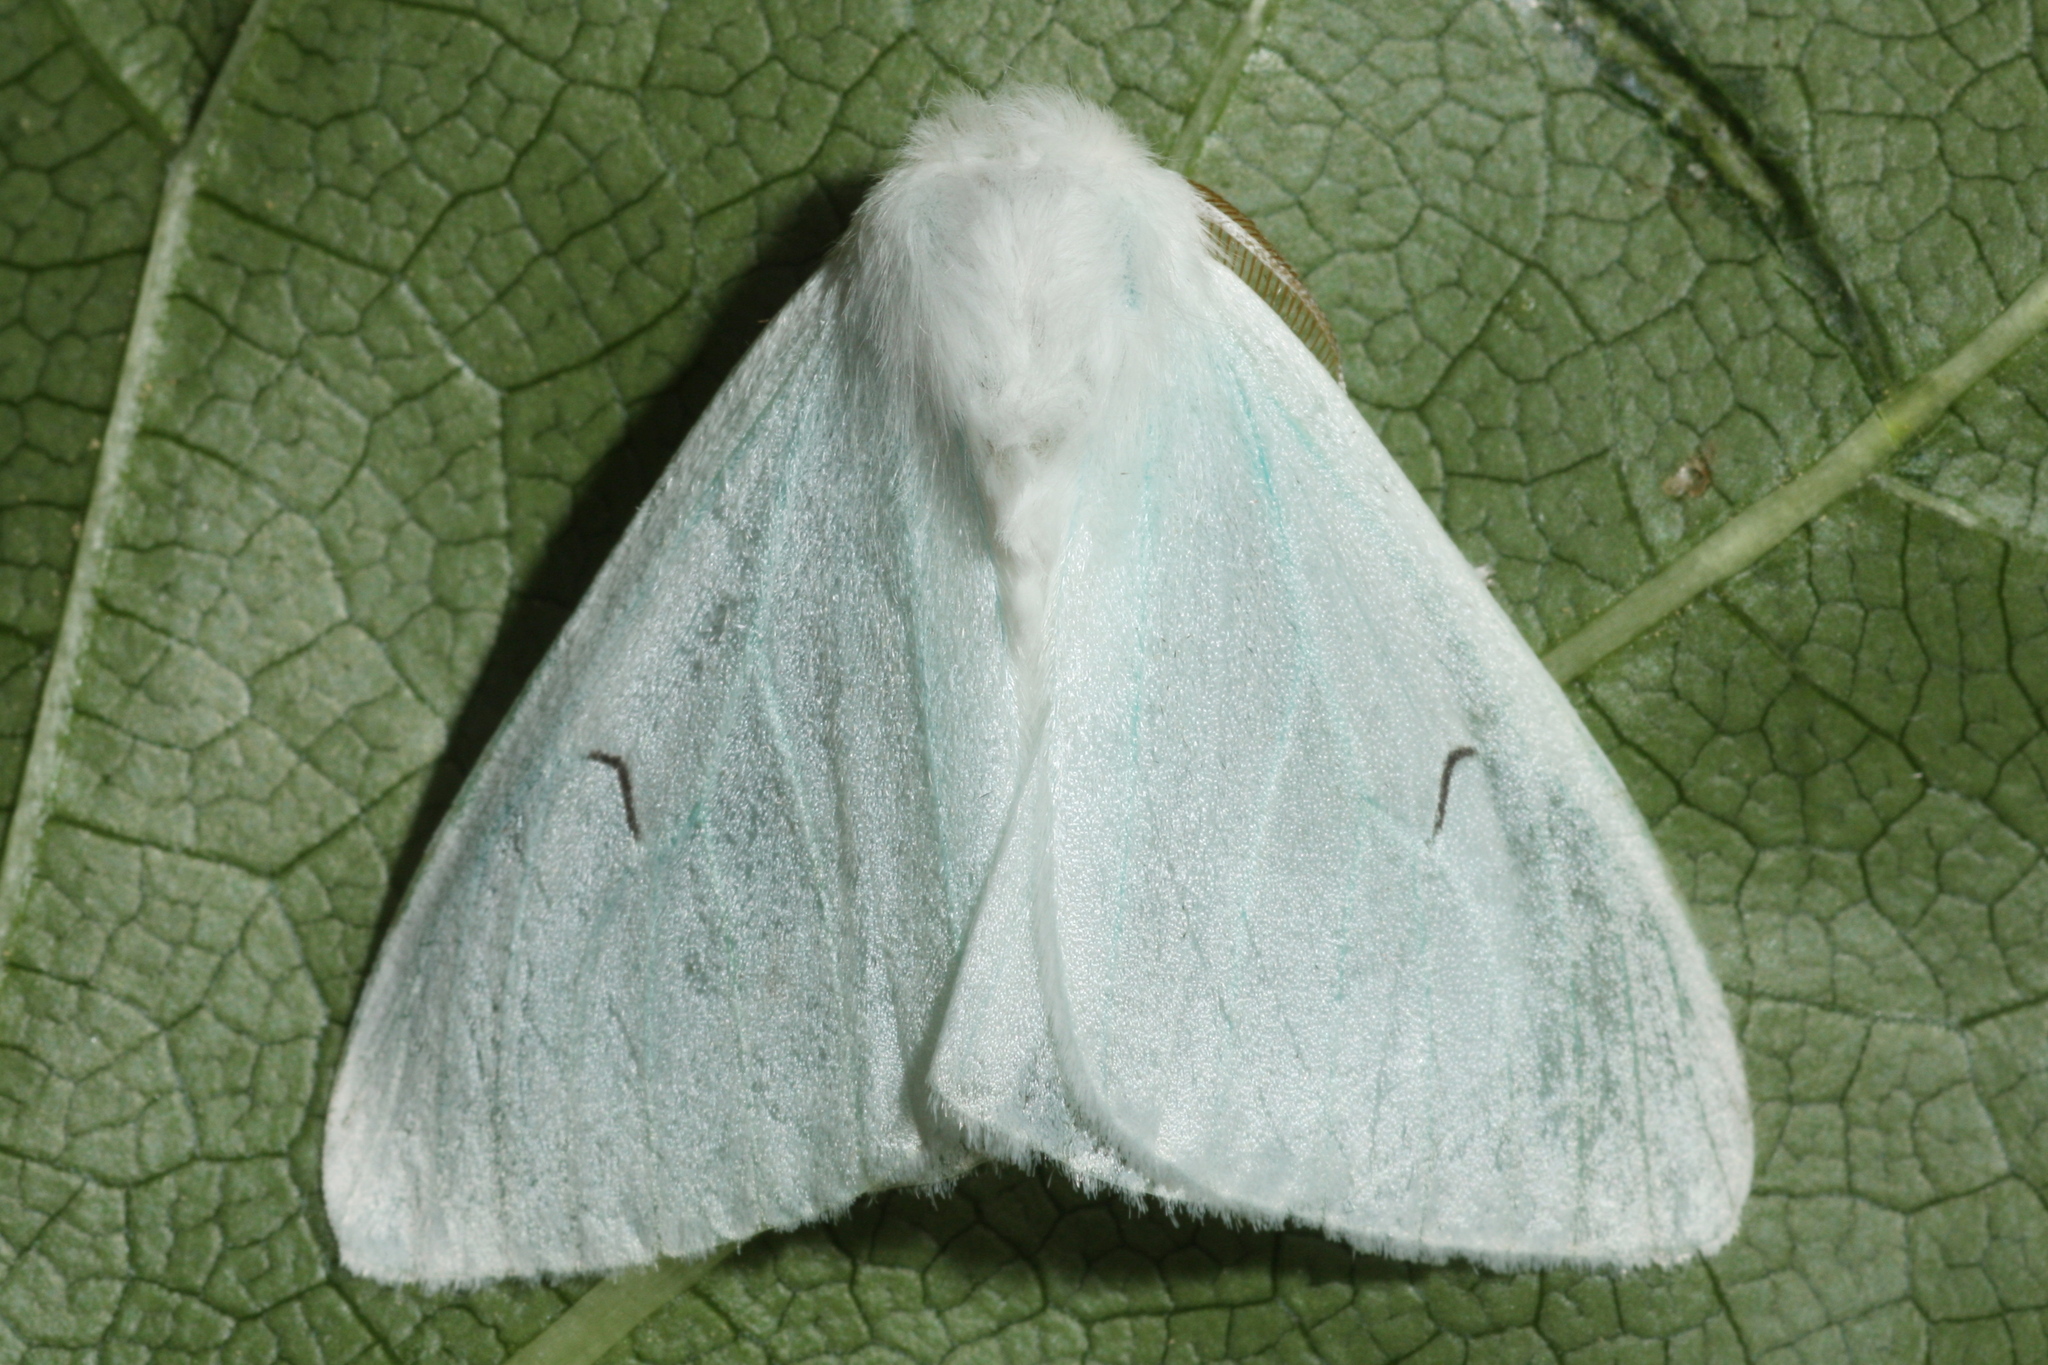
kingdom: Animalia
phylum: Arthropoda
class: Insecta
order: Lepidoptera
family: Erebidae
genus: Arctornis
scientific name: Arctornis l-nigrum
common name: Black v moth
